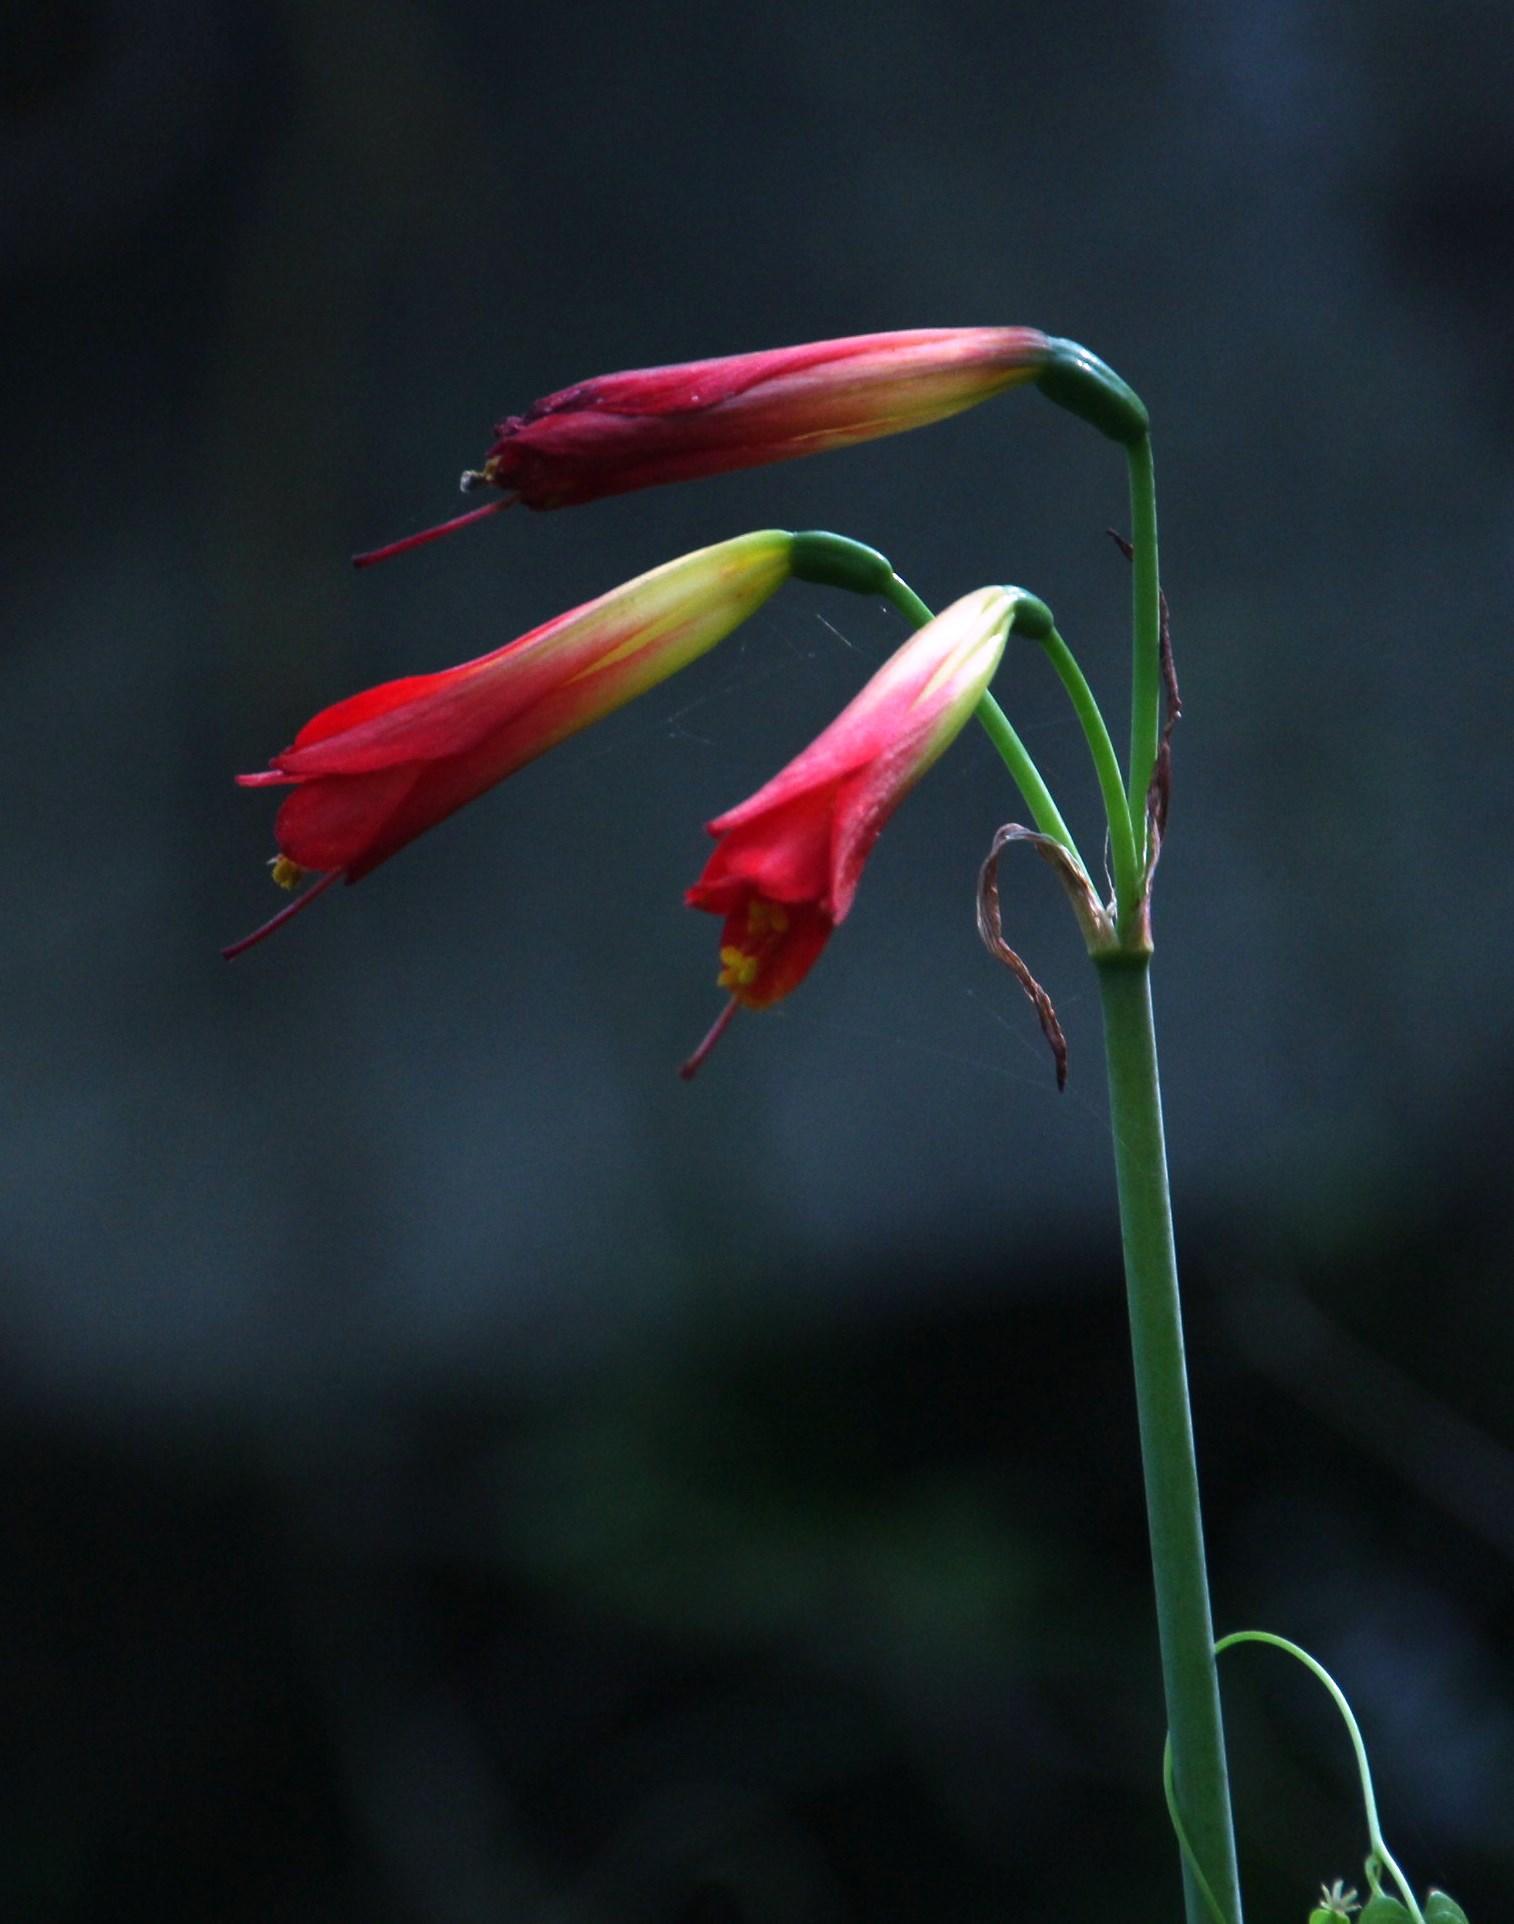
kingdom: Plantae
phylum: Tracheophyta
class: Liliopsida
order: Asparagales
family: Amaryllidaceae
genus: Phycella
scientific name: Phycella cyrtanthoides
